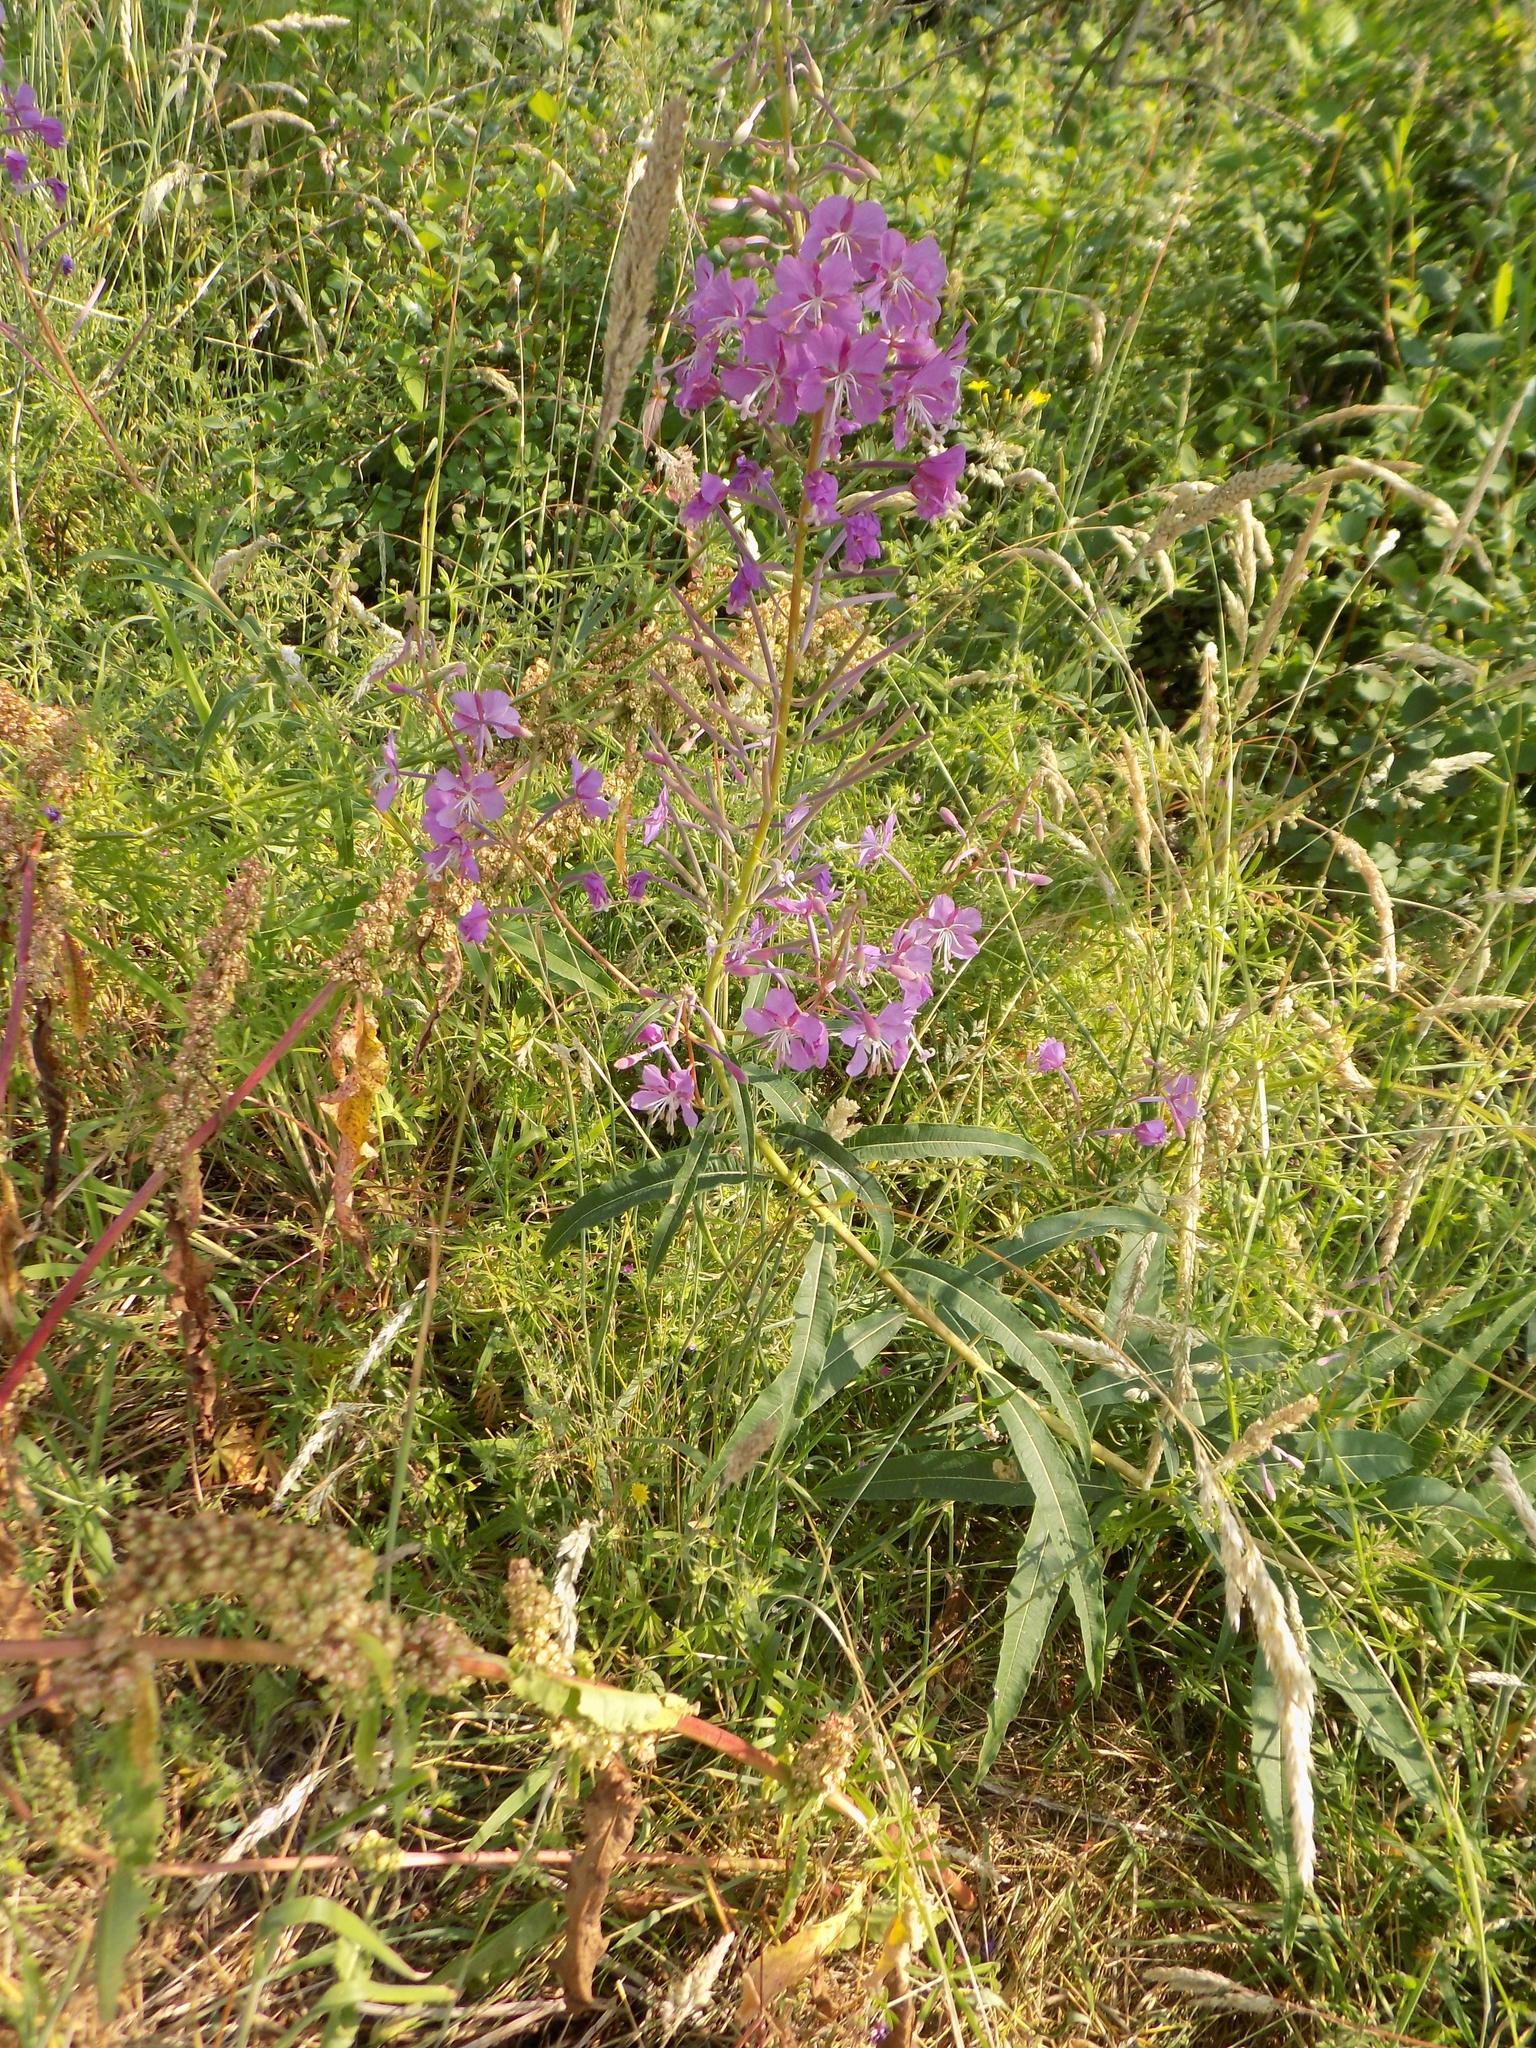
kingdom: Plantae
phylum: Tracheophyta
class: Magnoliopsida
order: Myrtales
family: Onagraceae
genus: Chamaenerion
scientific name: Chamaenerion angustifolium
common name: Fireweed
